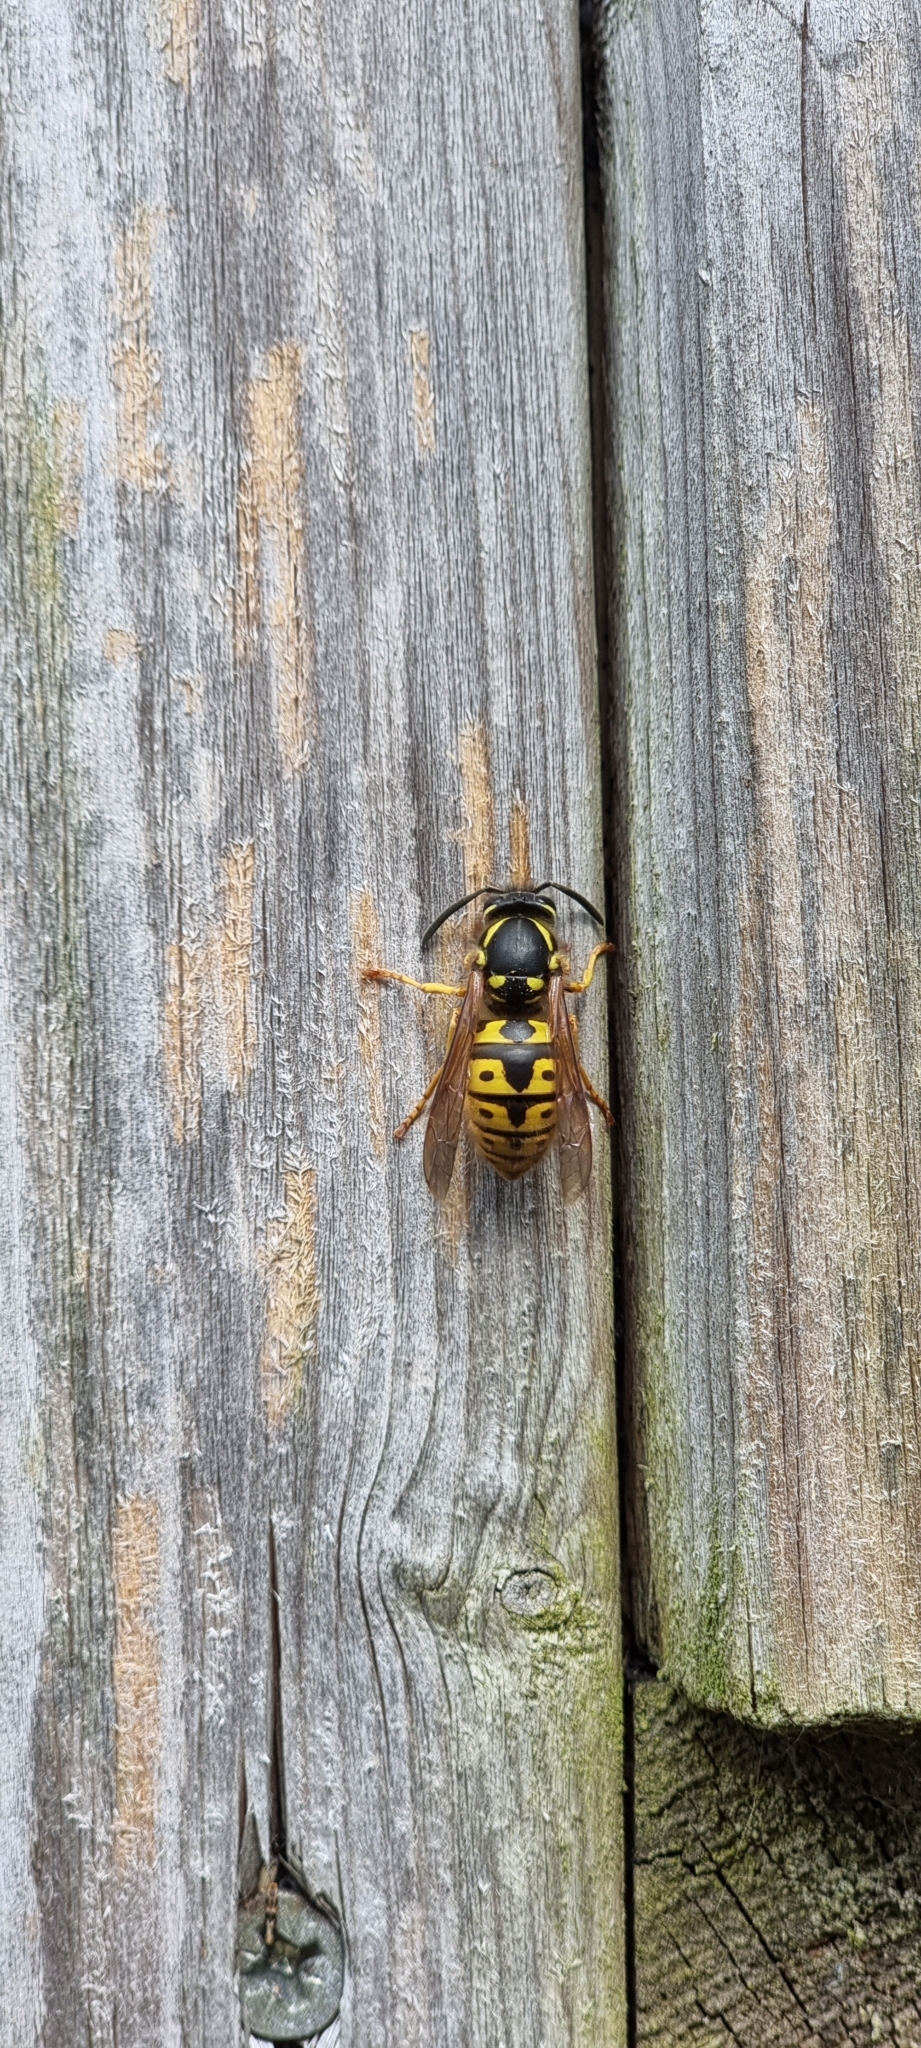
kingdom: Animalia
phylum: Arthropoda
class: Insecta
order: Hymenoptera
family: Vespidae
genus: Vespula
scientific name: Vespula germanica
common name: German wasp
